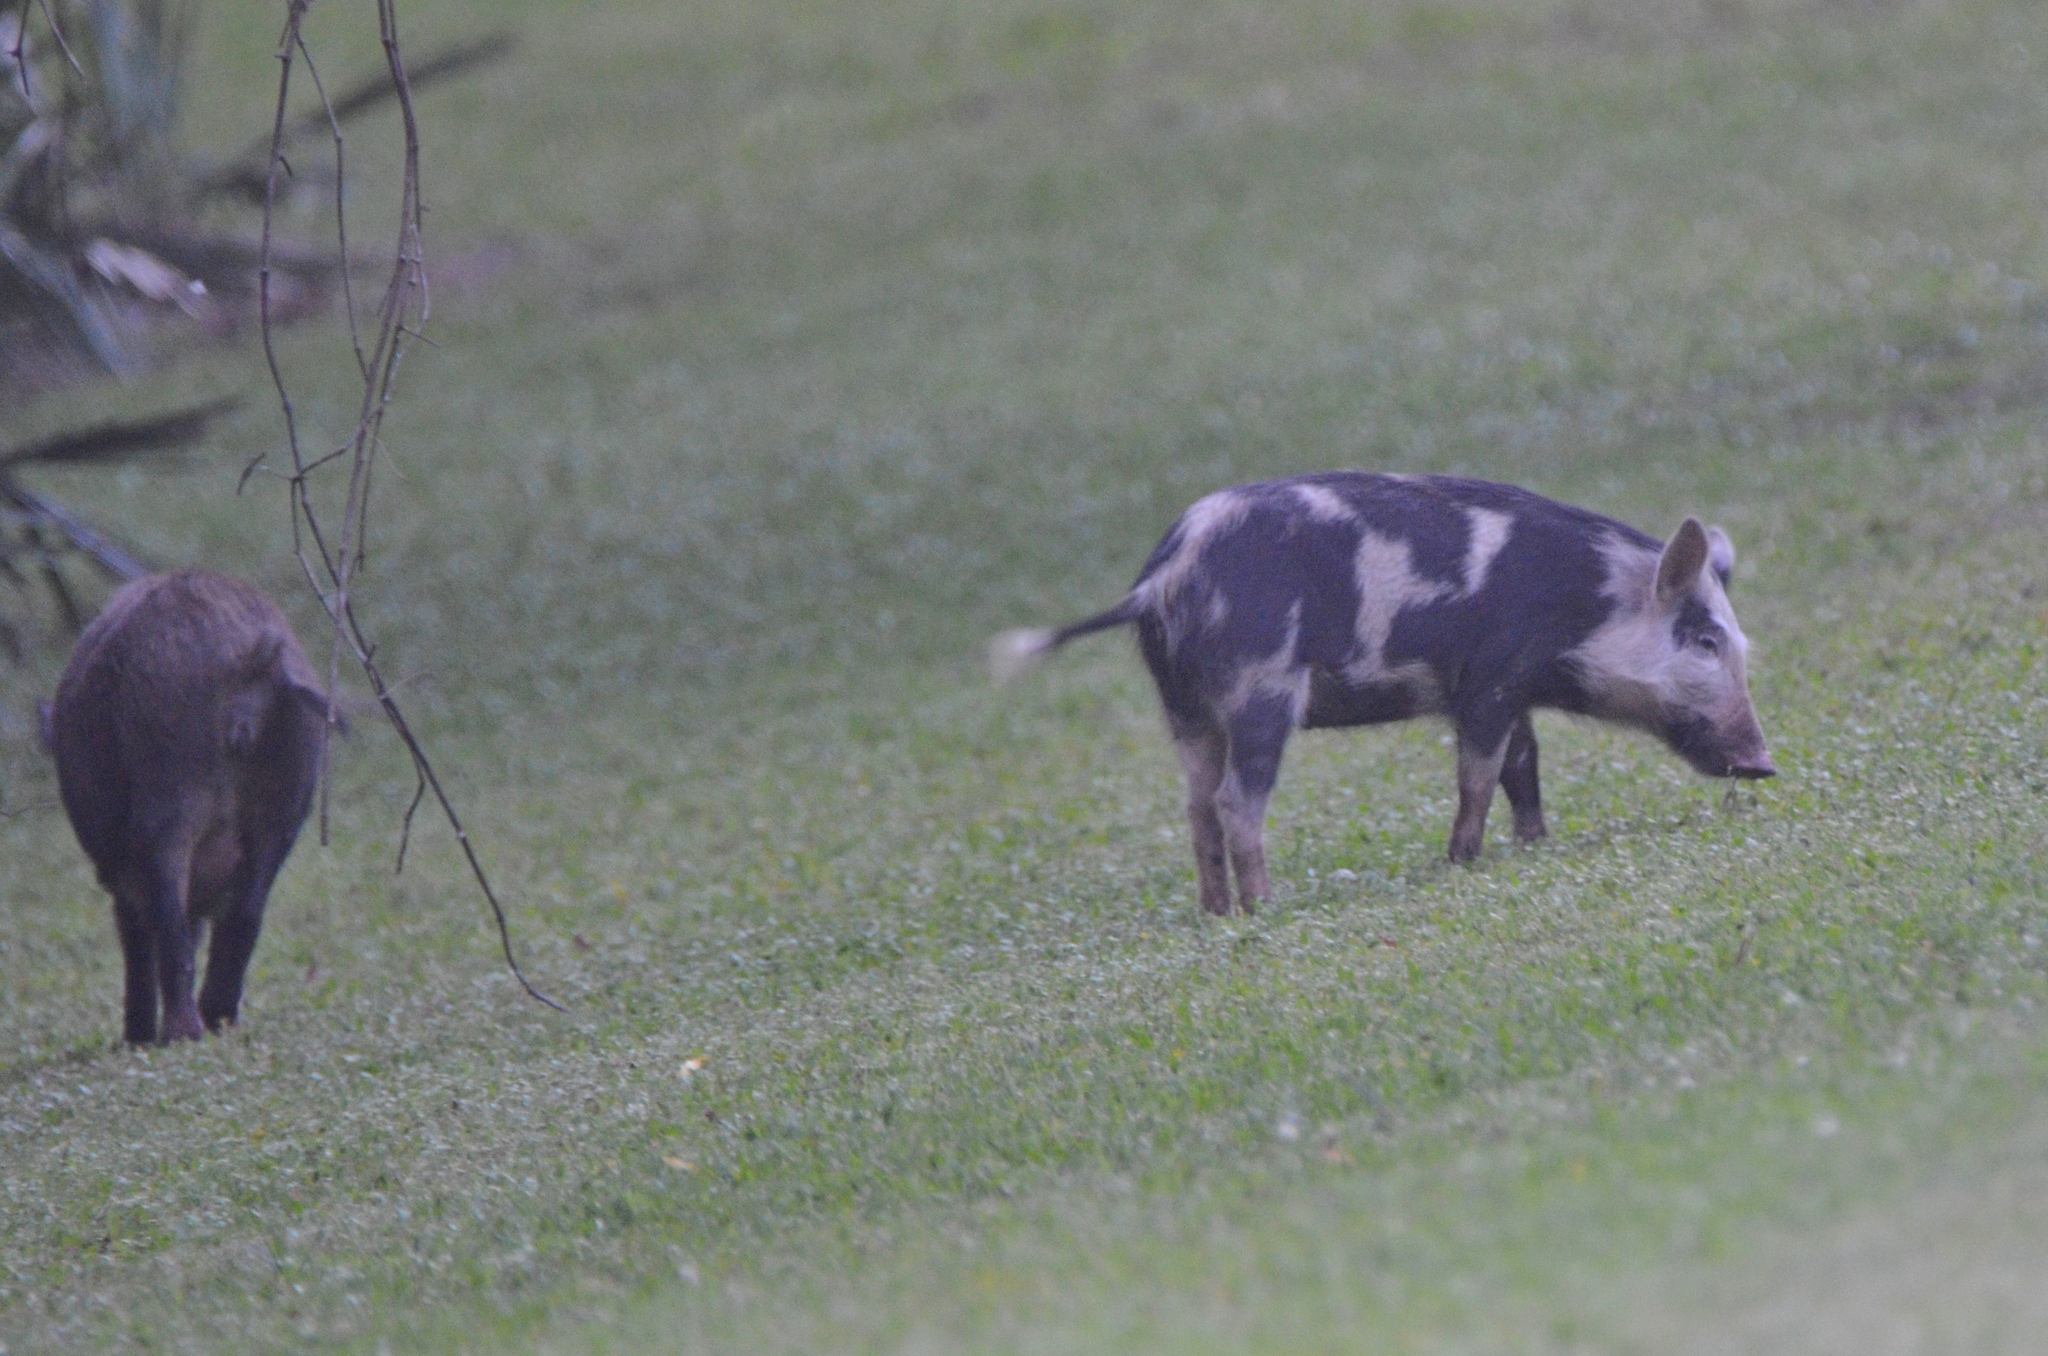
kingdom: Animalia
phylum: Chordata
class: Mammalia
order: Artiodactyla
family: Suidae
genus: Sus
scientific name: Sus scrofa
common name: Wild boar
